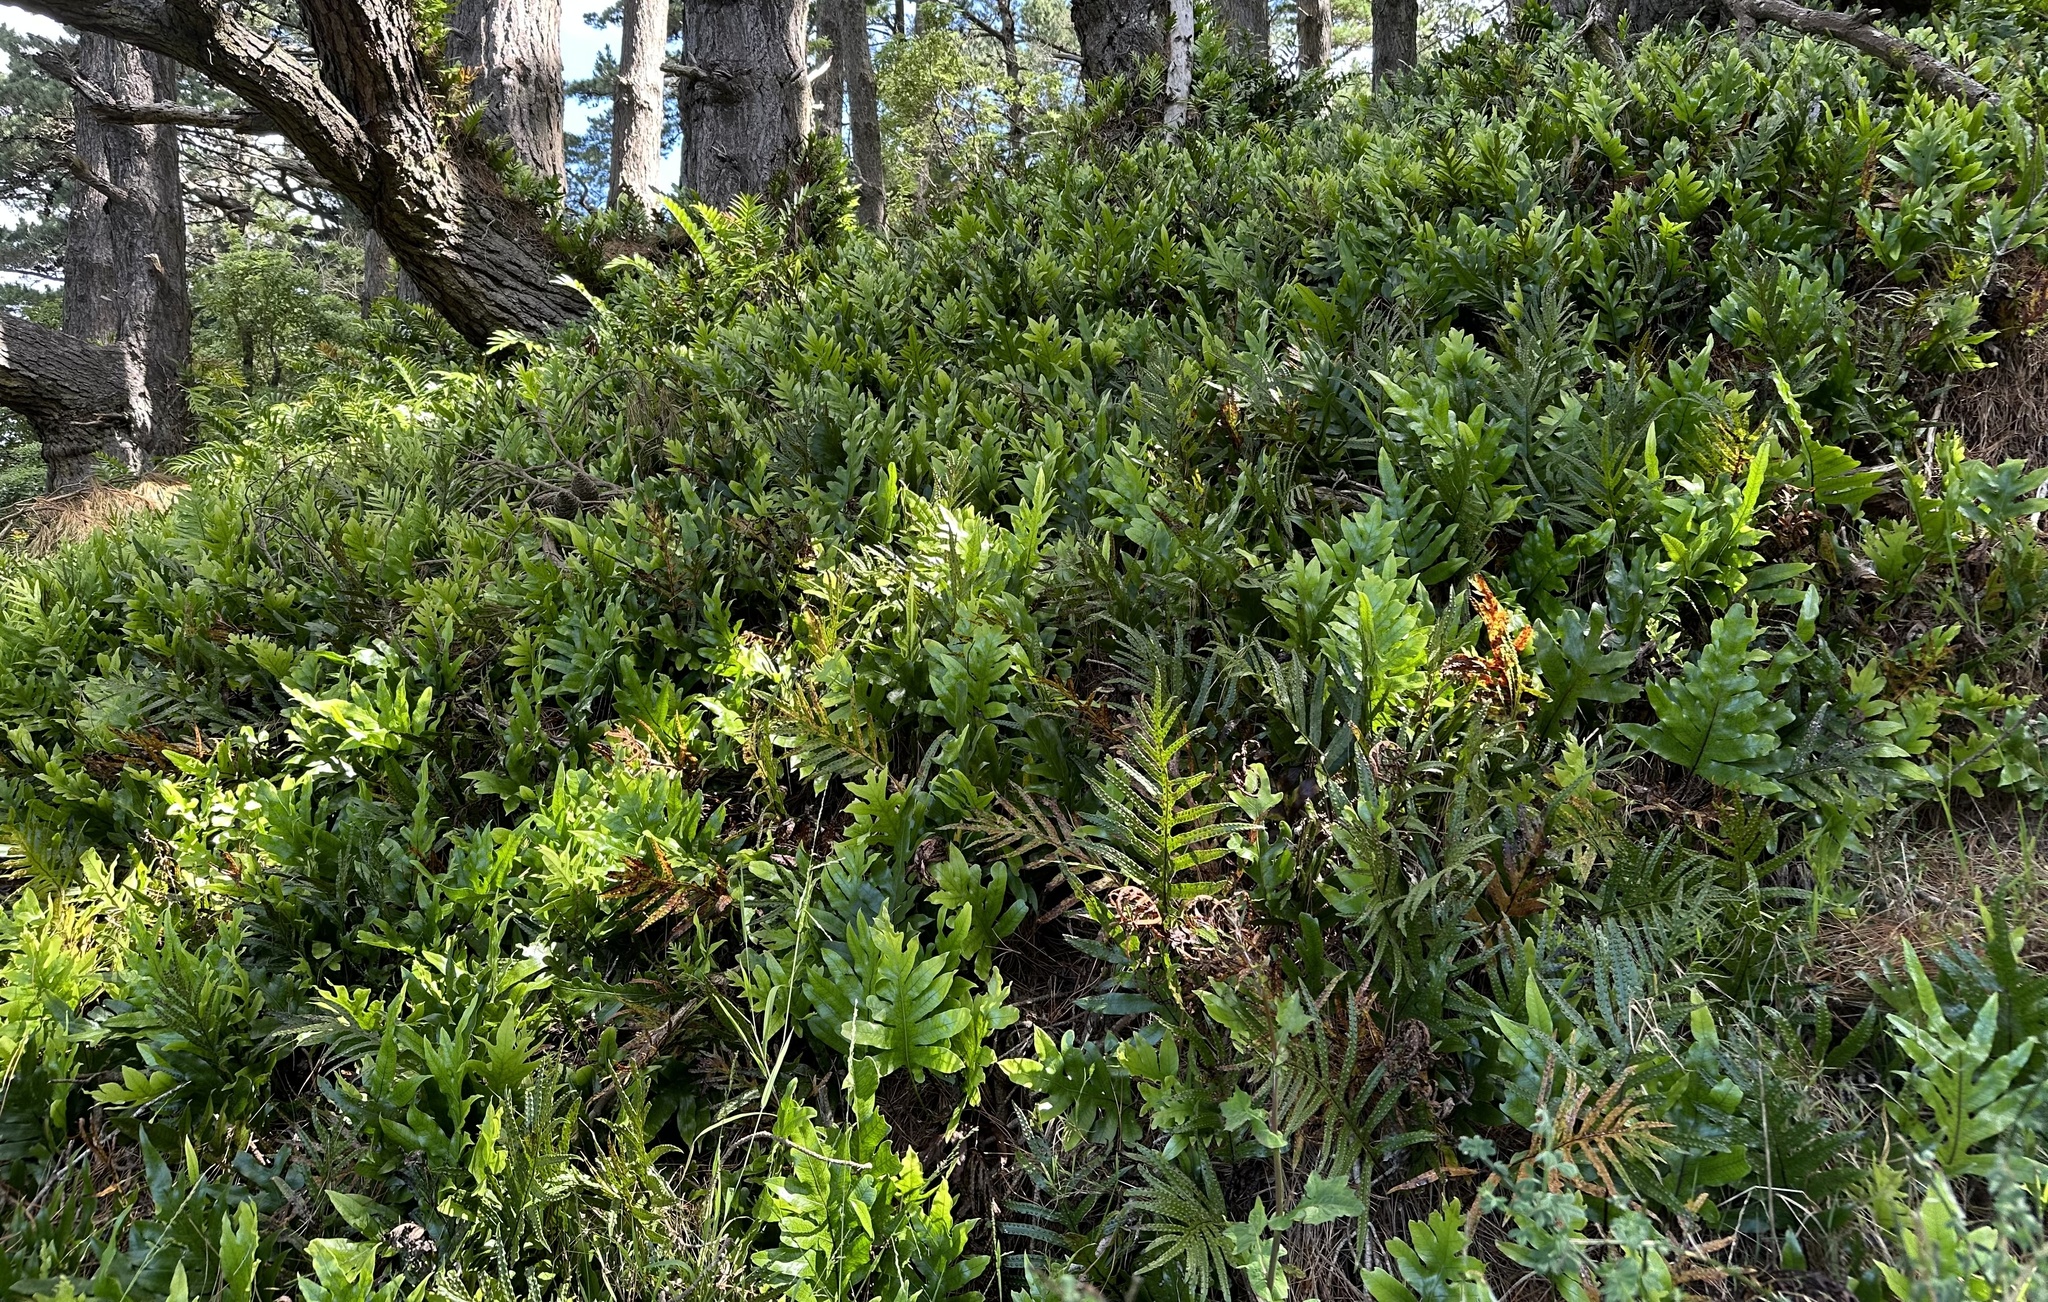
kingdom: Plantae
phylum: Tracheophyta
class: Polypodiopsida
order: Polypodiales
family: Polypodiaceae
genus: Lecanopteris
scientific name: Lecanopteris pustulata
